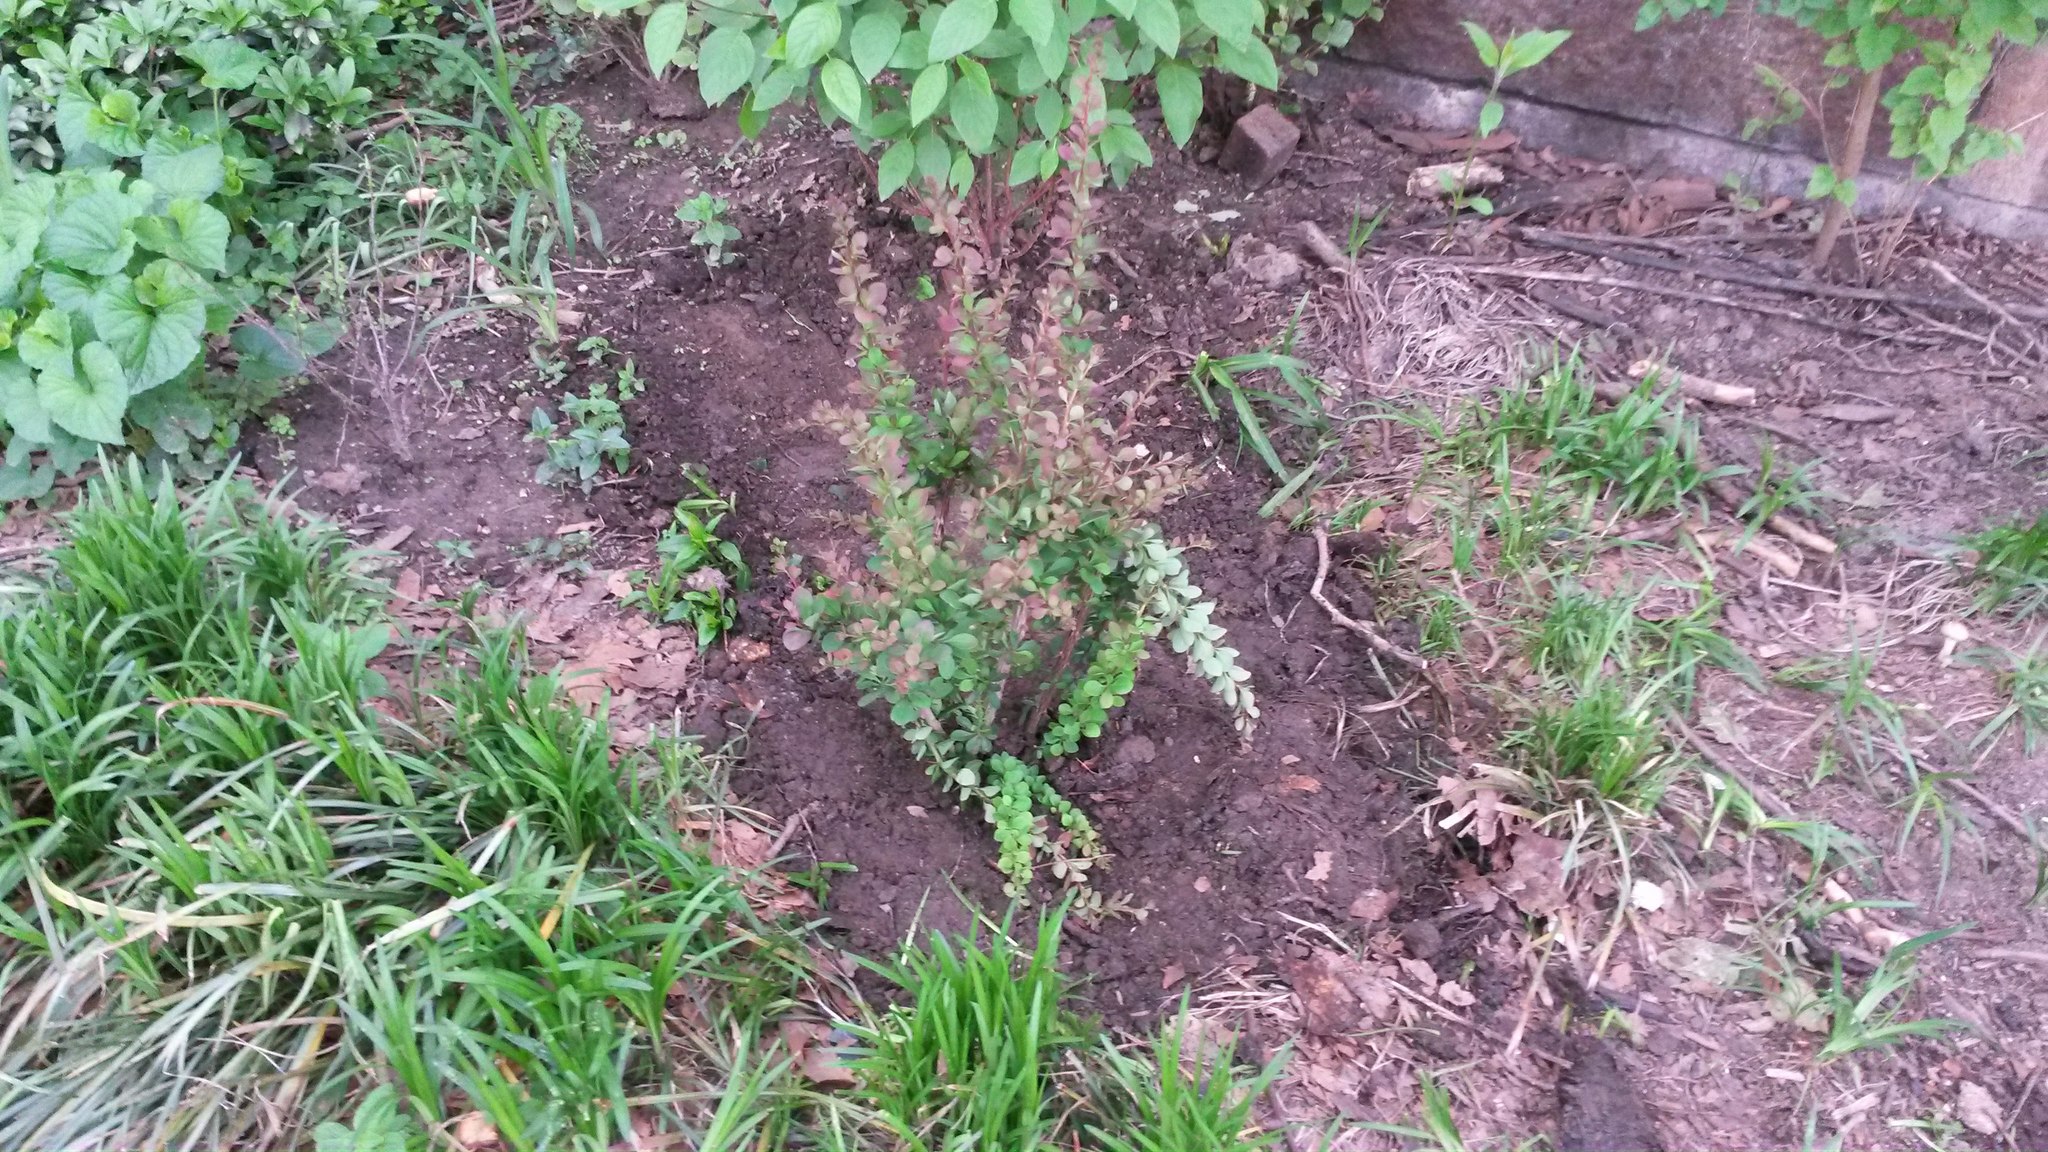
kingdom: Plantae
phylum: Tracheophyta
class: Magnoliopsida
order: Ranunculales
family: Berberidaceae
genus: Berberis
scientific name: Berberis thunbergii
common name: Japanese barberry
